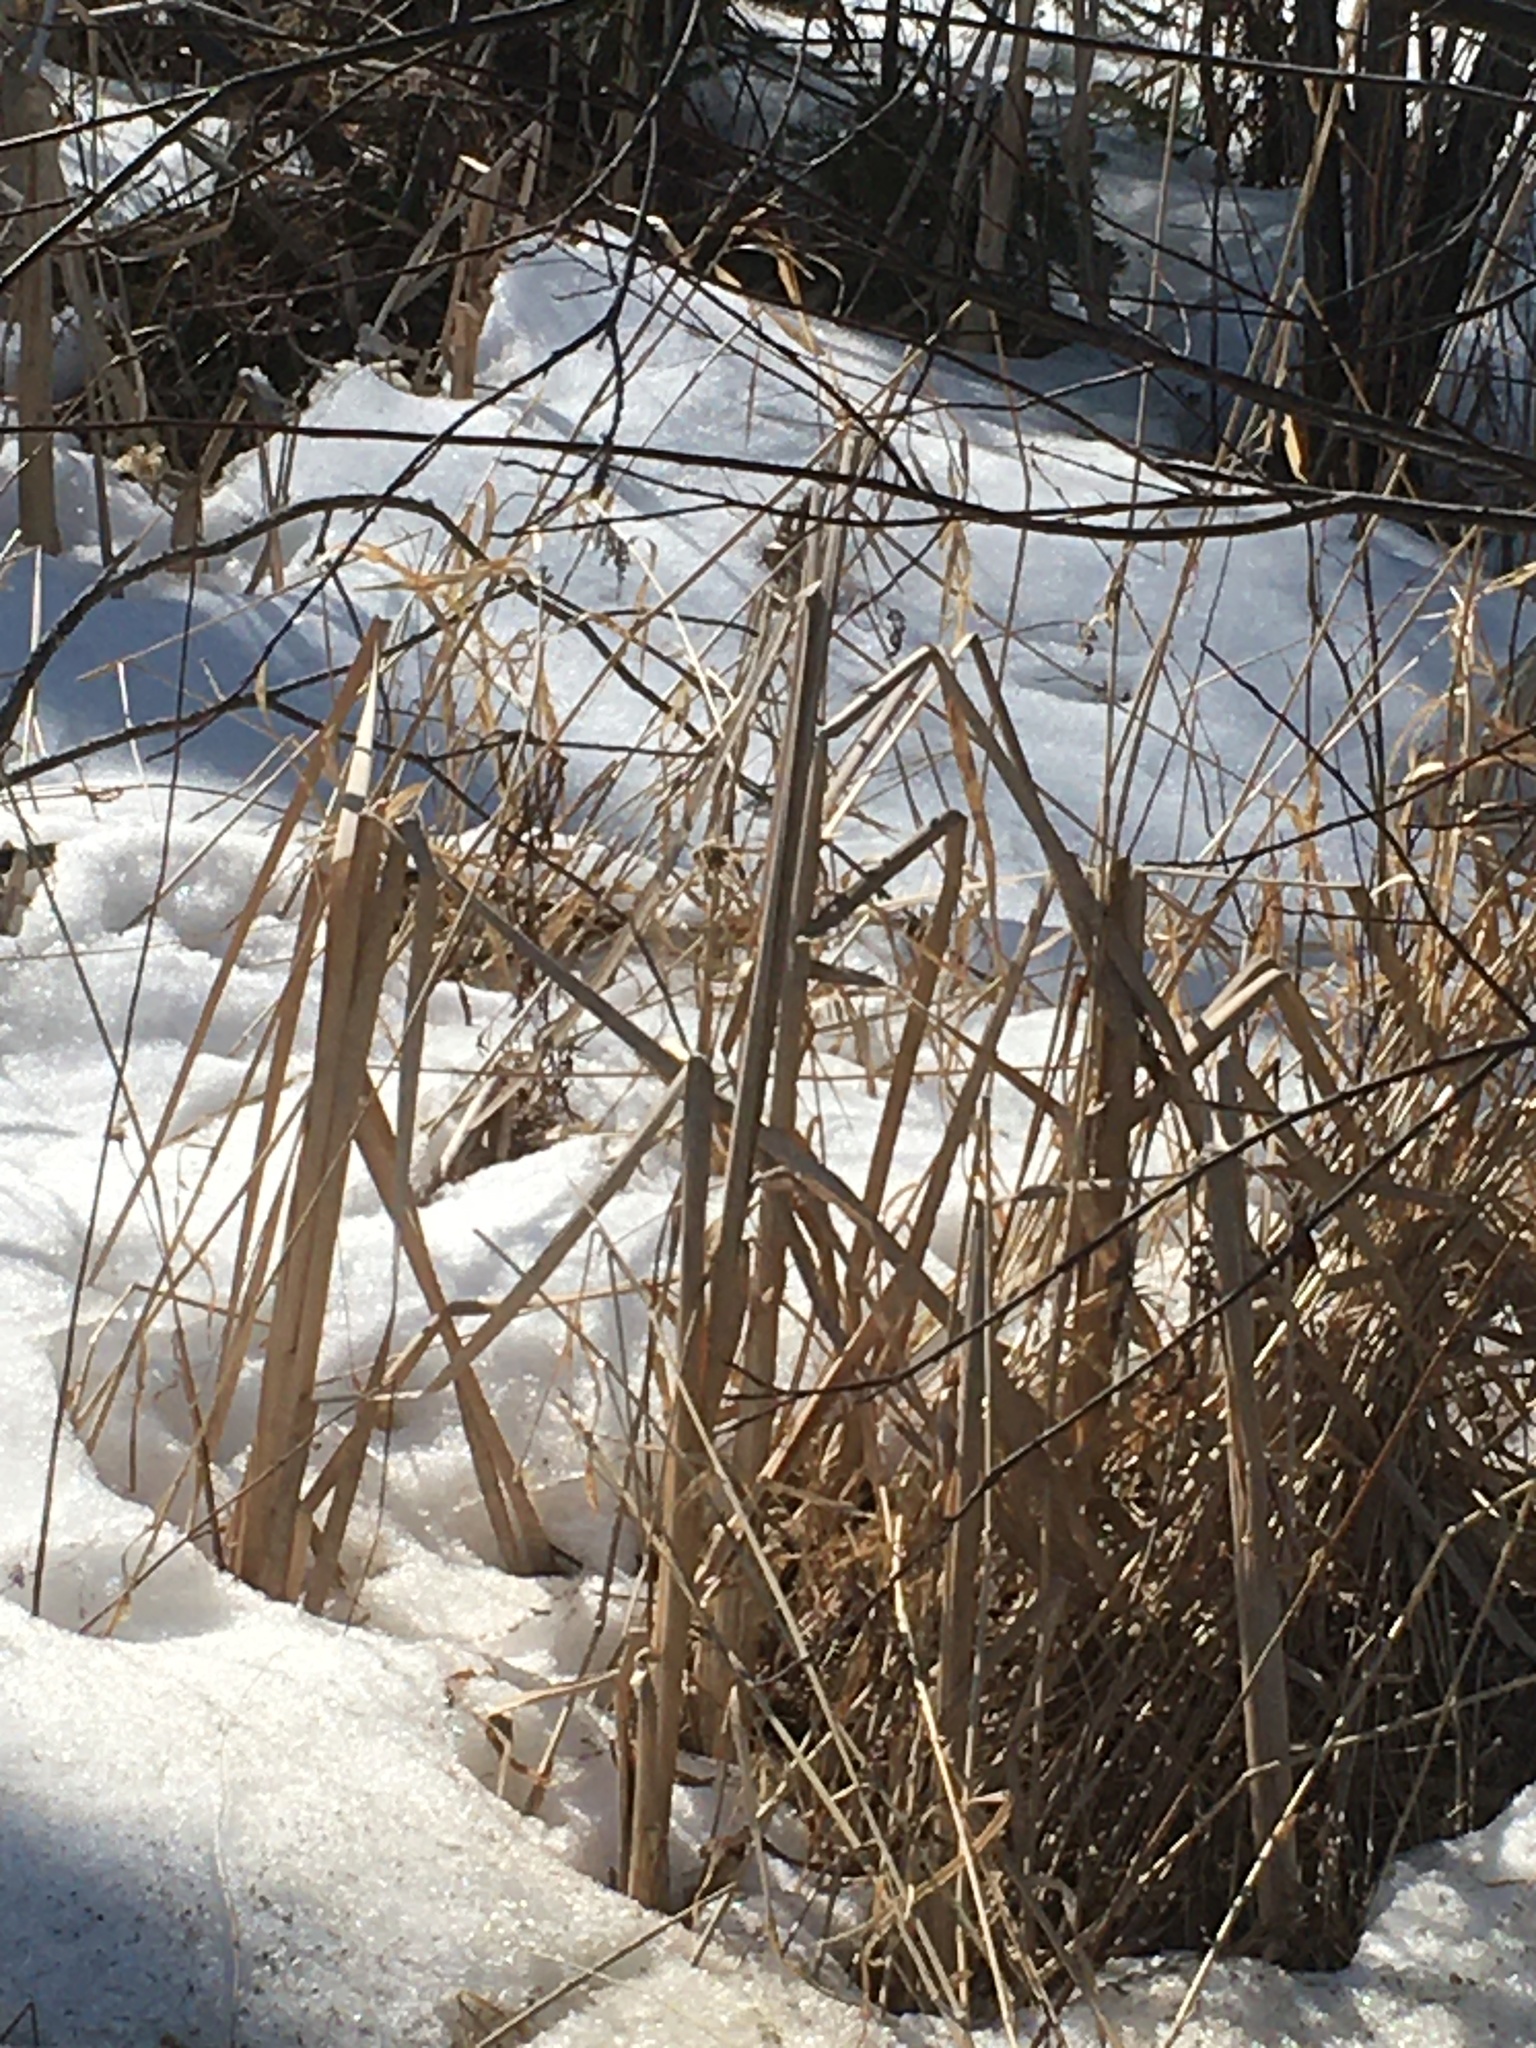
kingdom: Plantae
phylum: Tracheophyta
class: Liliopsida
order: Poales
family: Typhaceae
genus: Typha
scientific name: Typha
